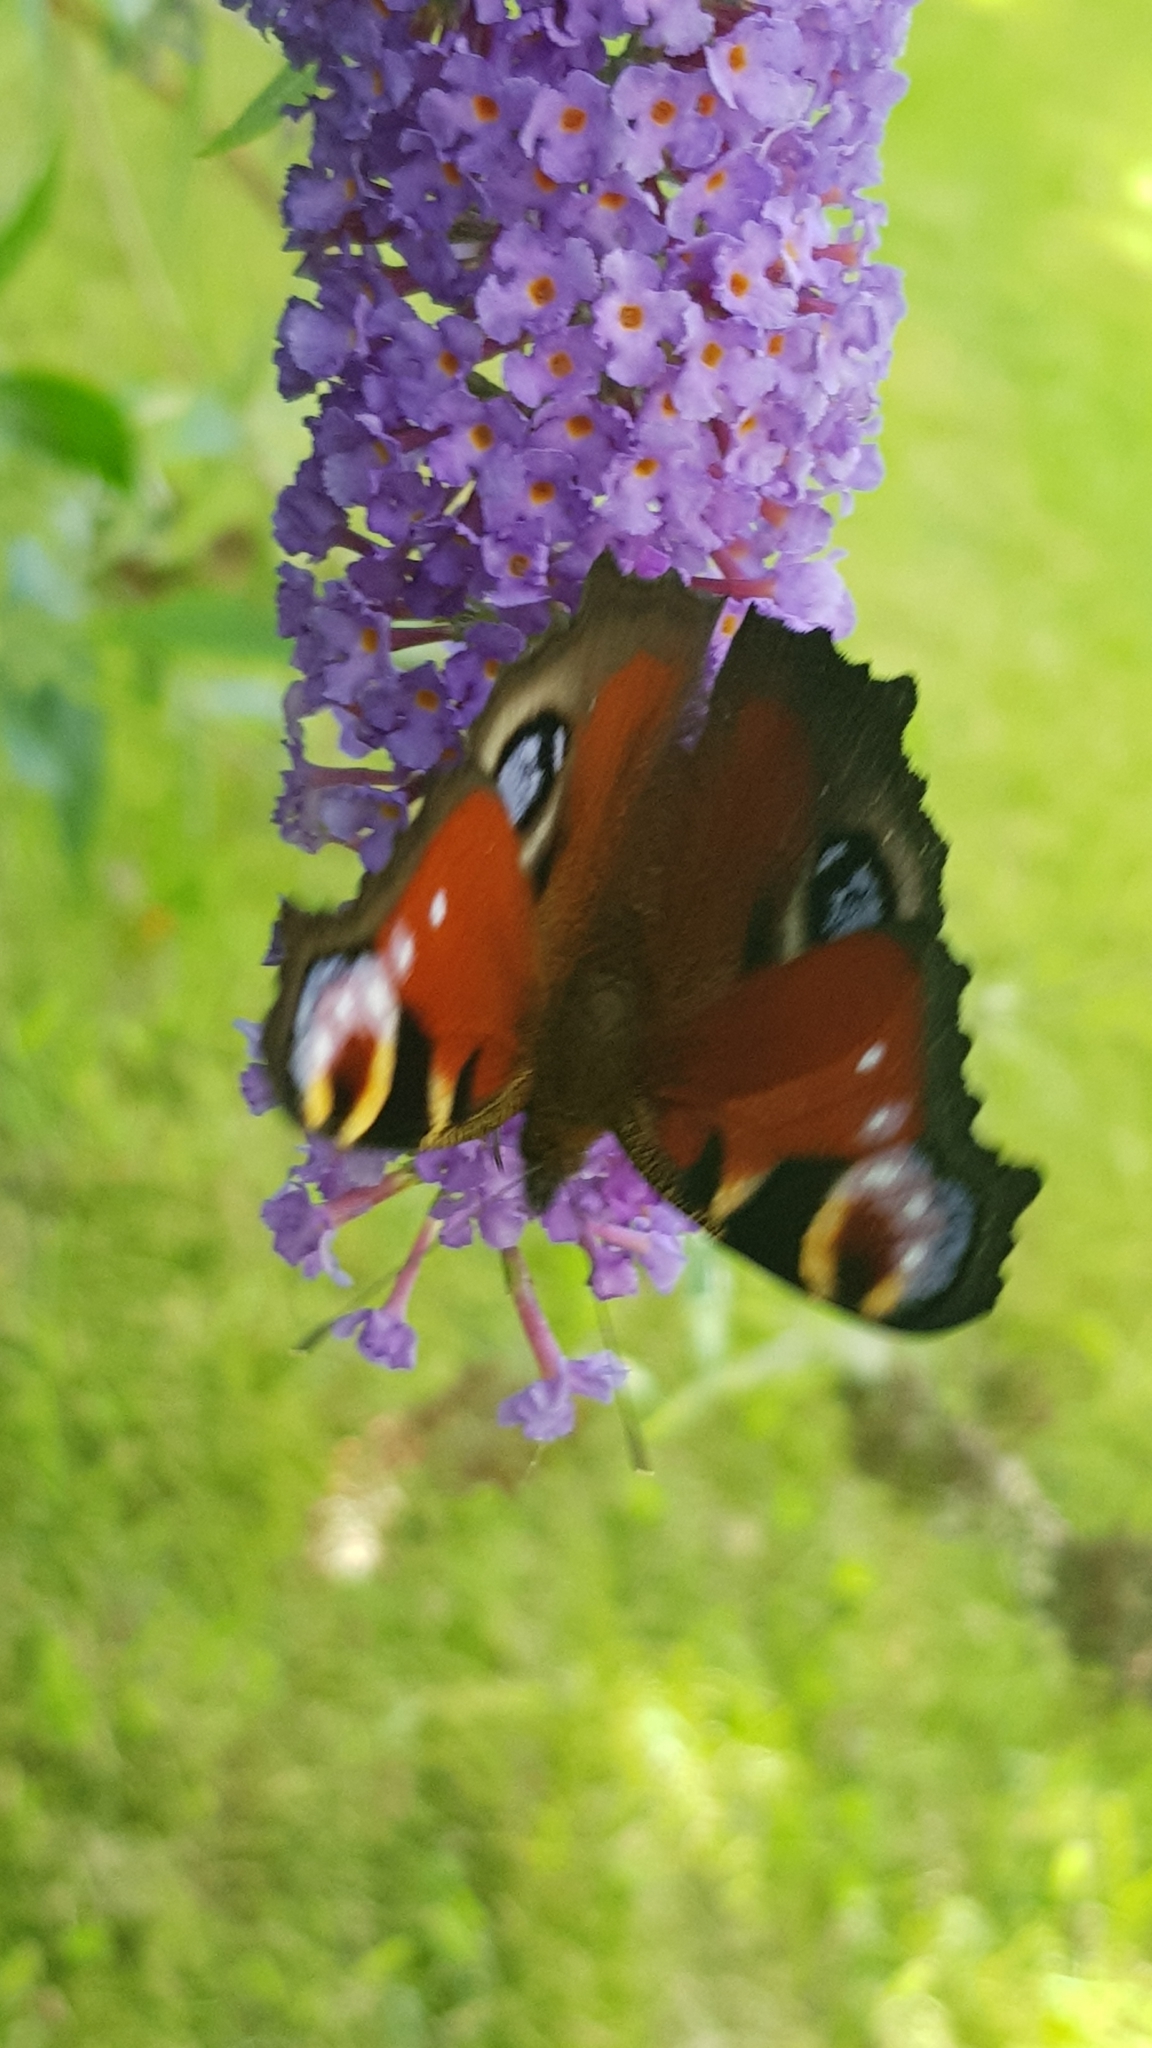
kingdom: Animalia
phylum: Arthropoda
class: Insecta
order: Lepidoptera
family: Nymphalidae
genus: Aglais
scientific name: Aglais io
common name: Peacock
